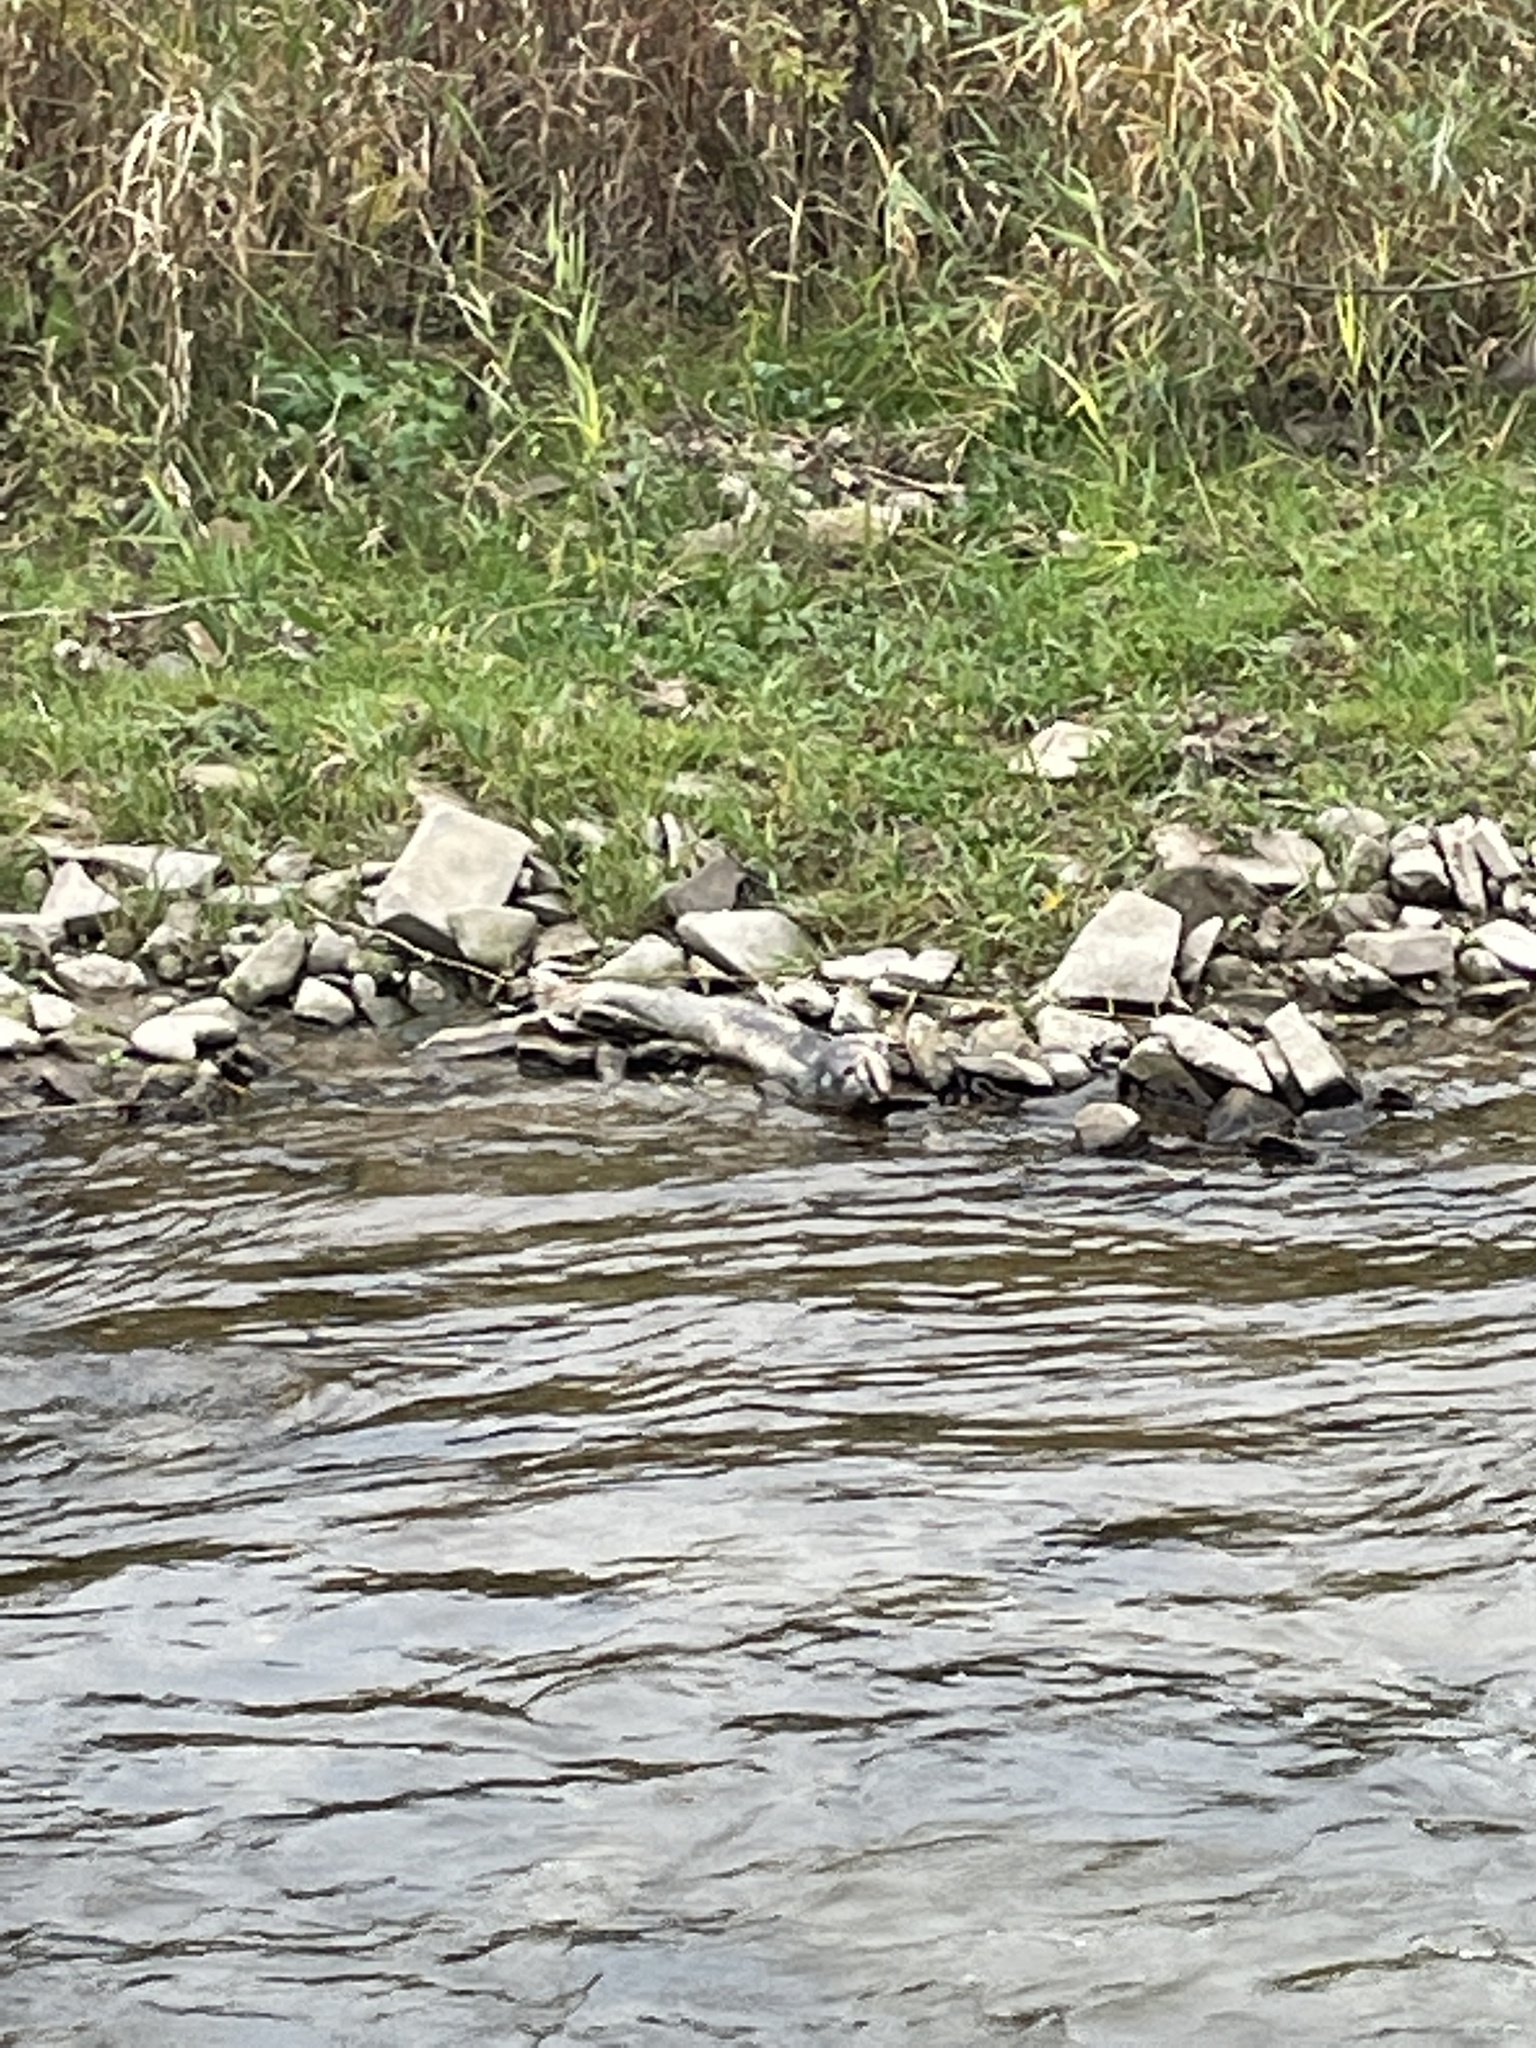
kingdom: Animalia
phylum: Chordata
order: Salmoniformes
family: Salmonidae
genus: Oncorhynchus
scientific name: Oncorhynchus tshawytscha
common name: Chinook salmon
